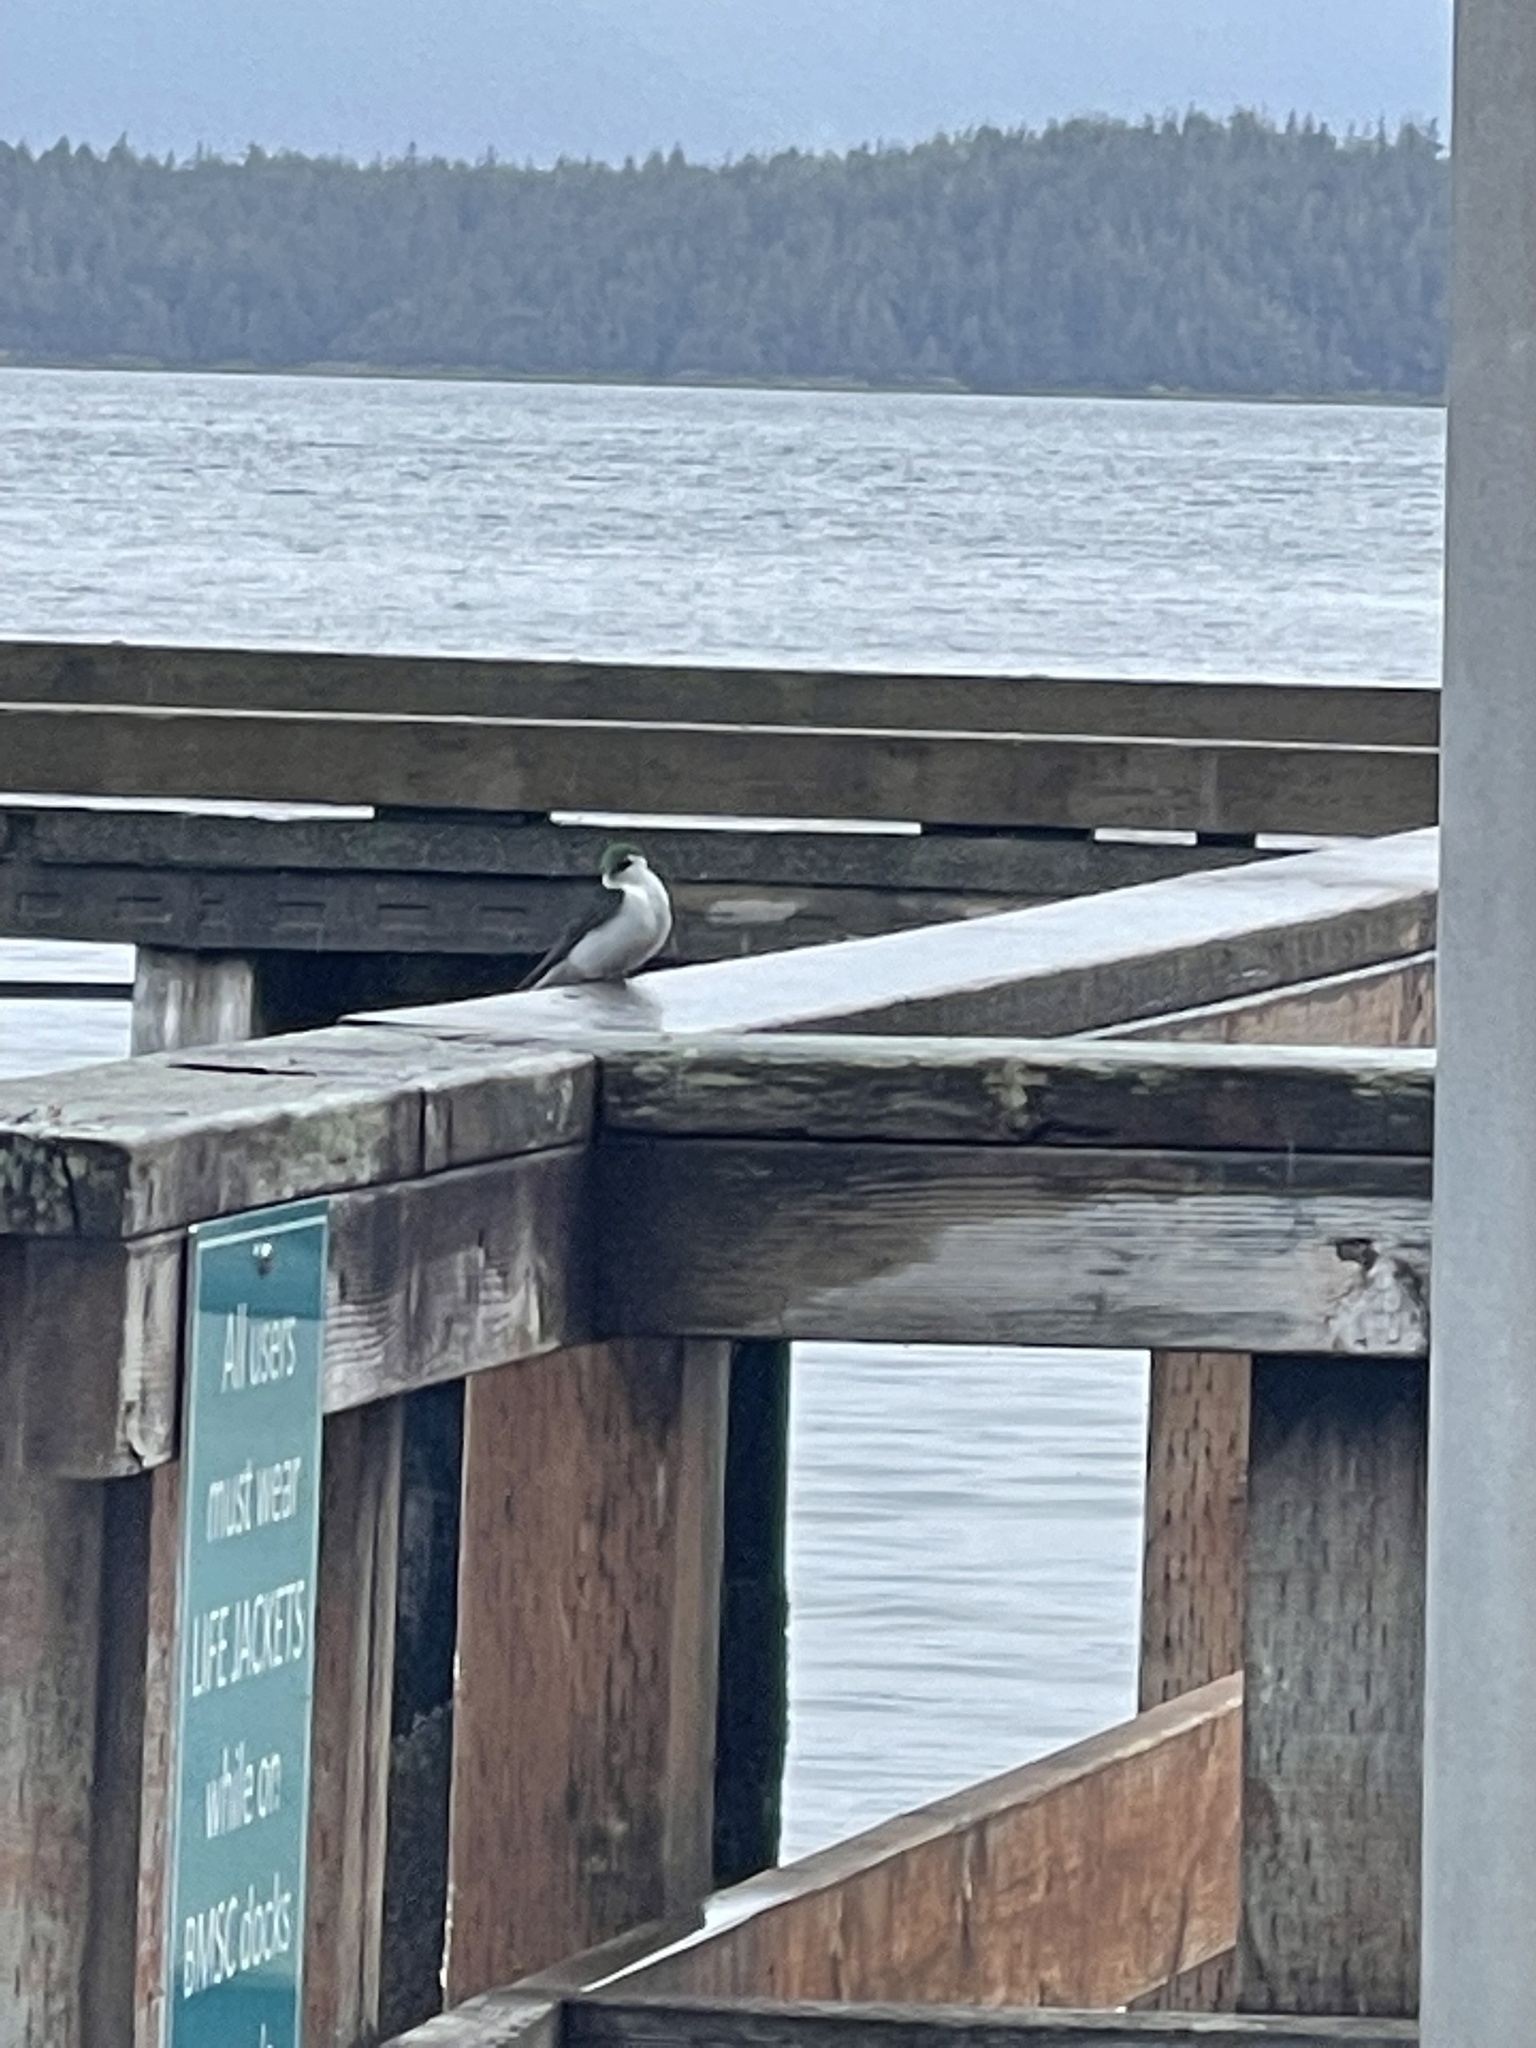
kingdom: Animalia
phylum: Chordata
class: Aves
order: Passeriformes
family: Hirundinidae
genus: Tachycineta
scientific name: Tachycineta thalassina
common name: Violet-green swallow
